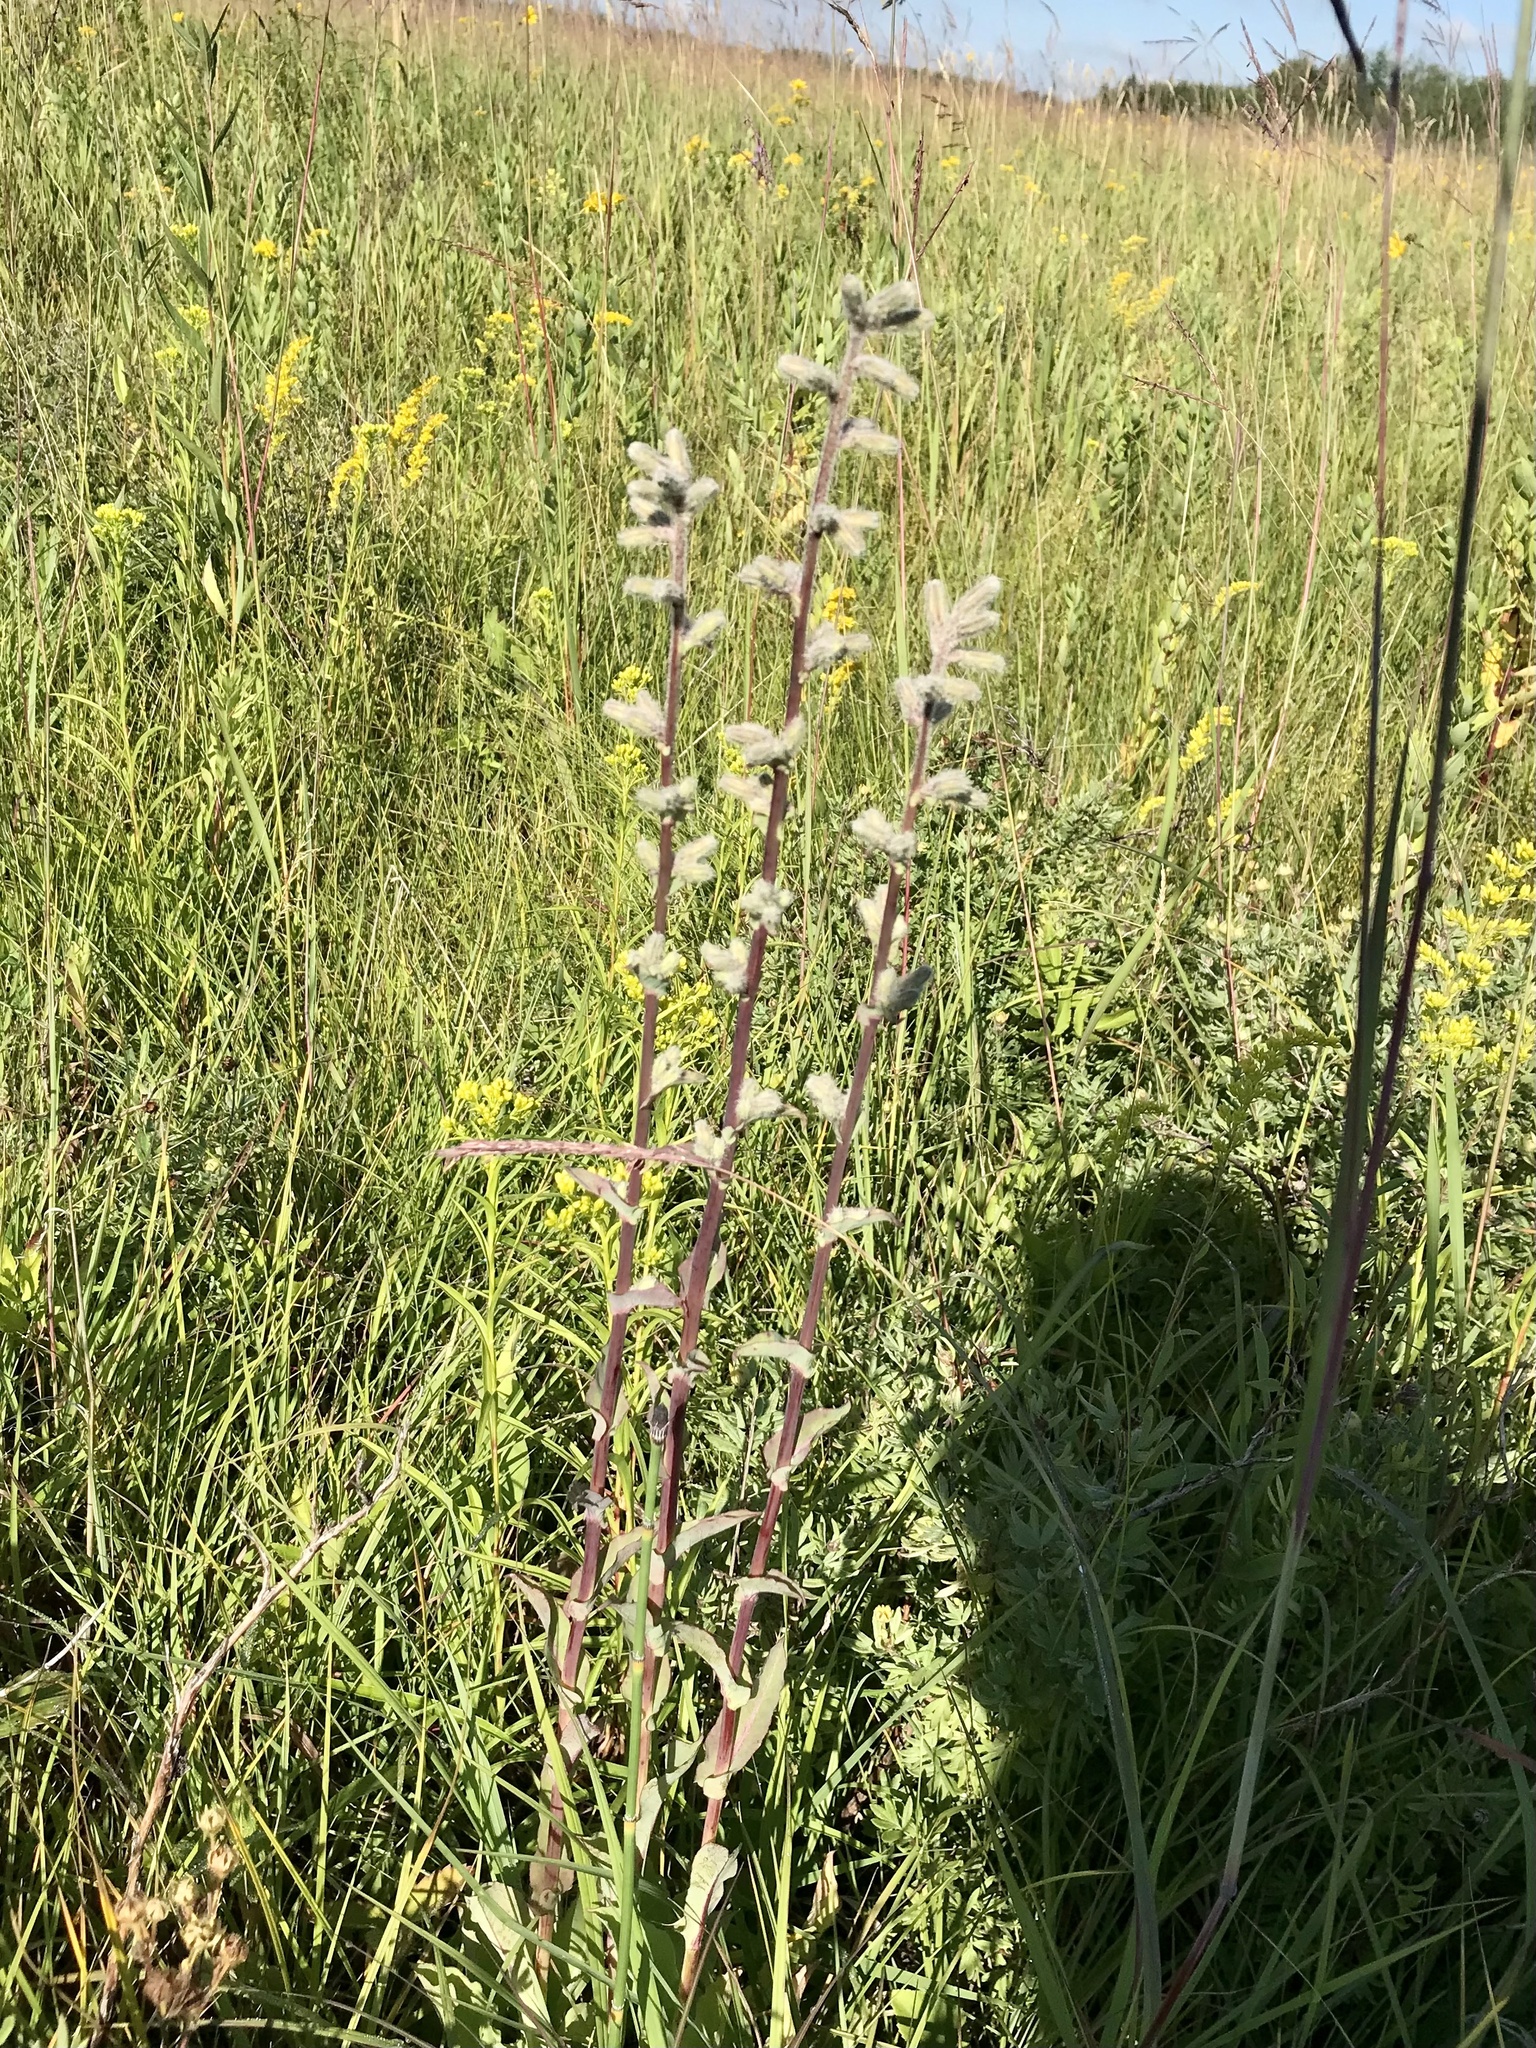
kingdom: Plantae
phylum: Tracheophyta
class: Magnoliopsida
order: Asterales
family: Asteraceae
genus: Nabalus
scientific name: Nabalus racemosus
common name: Glaucous white lettuce
